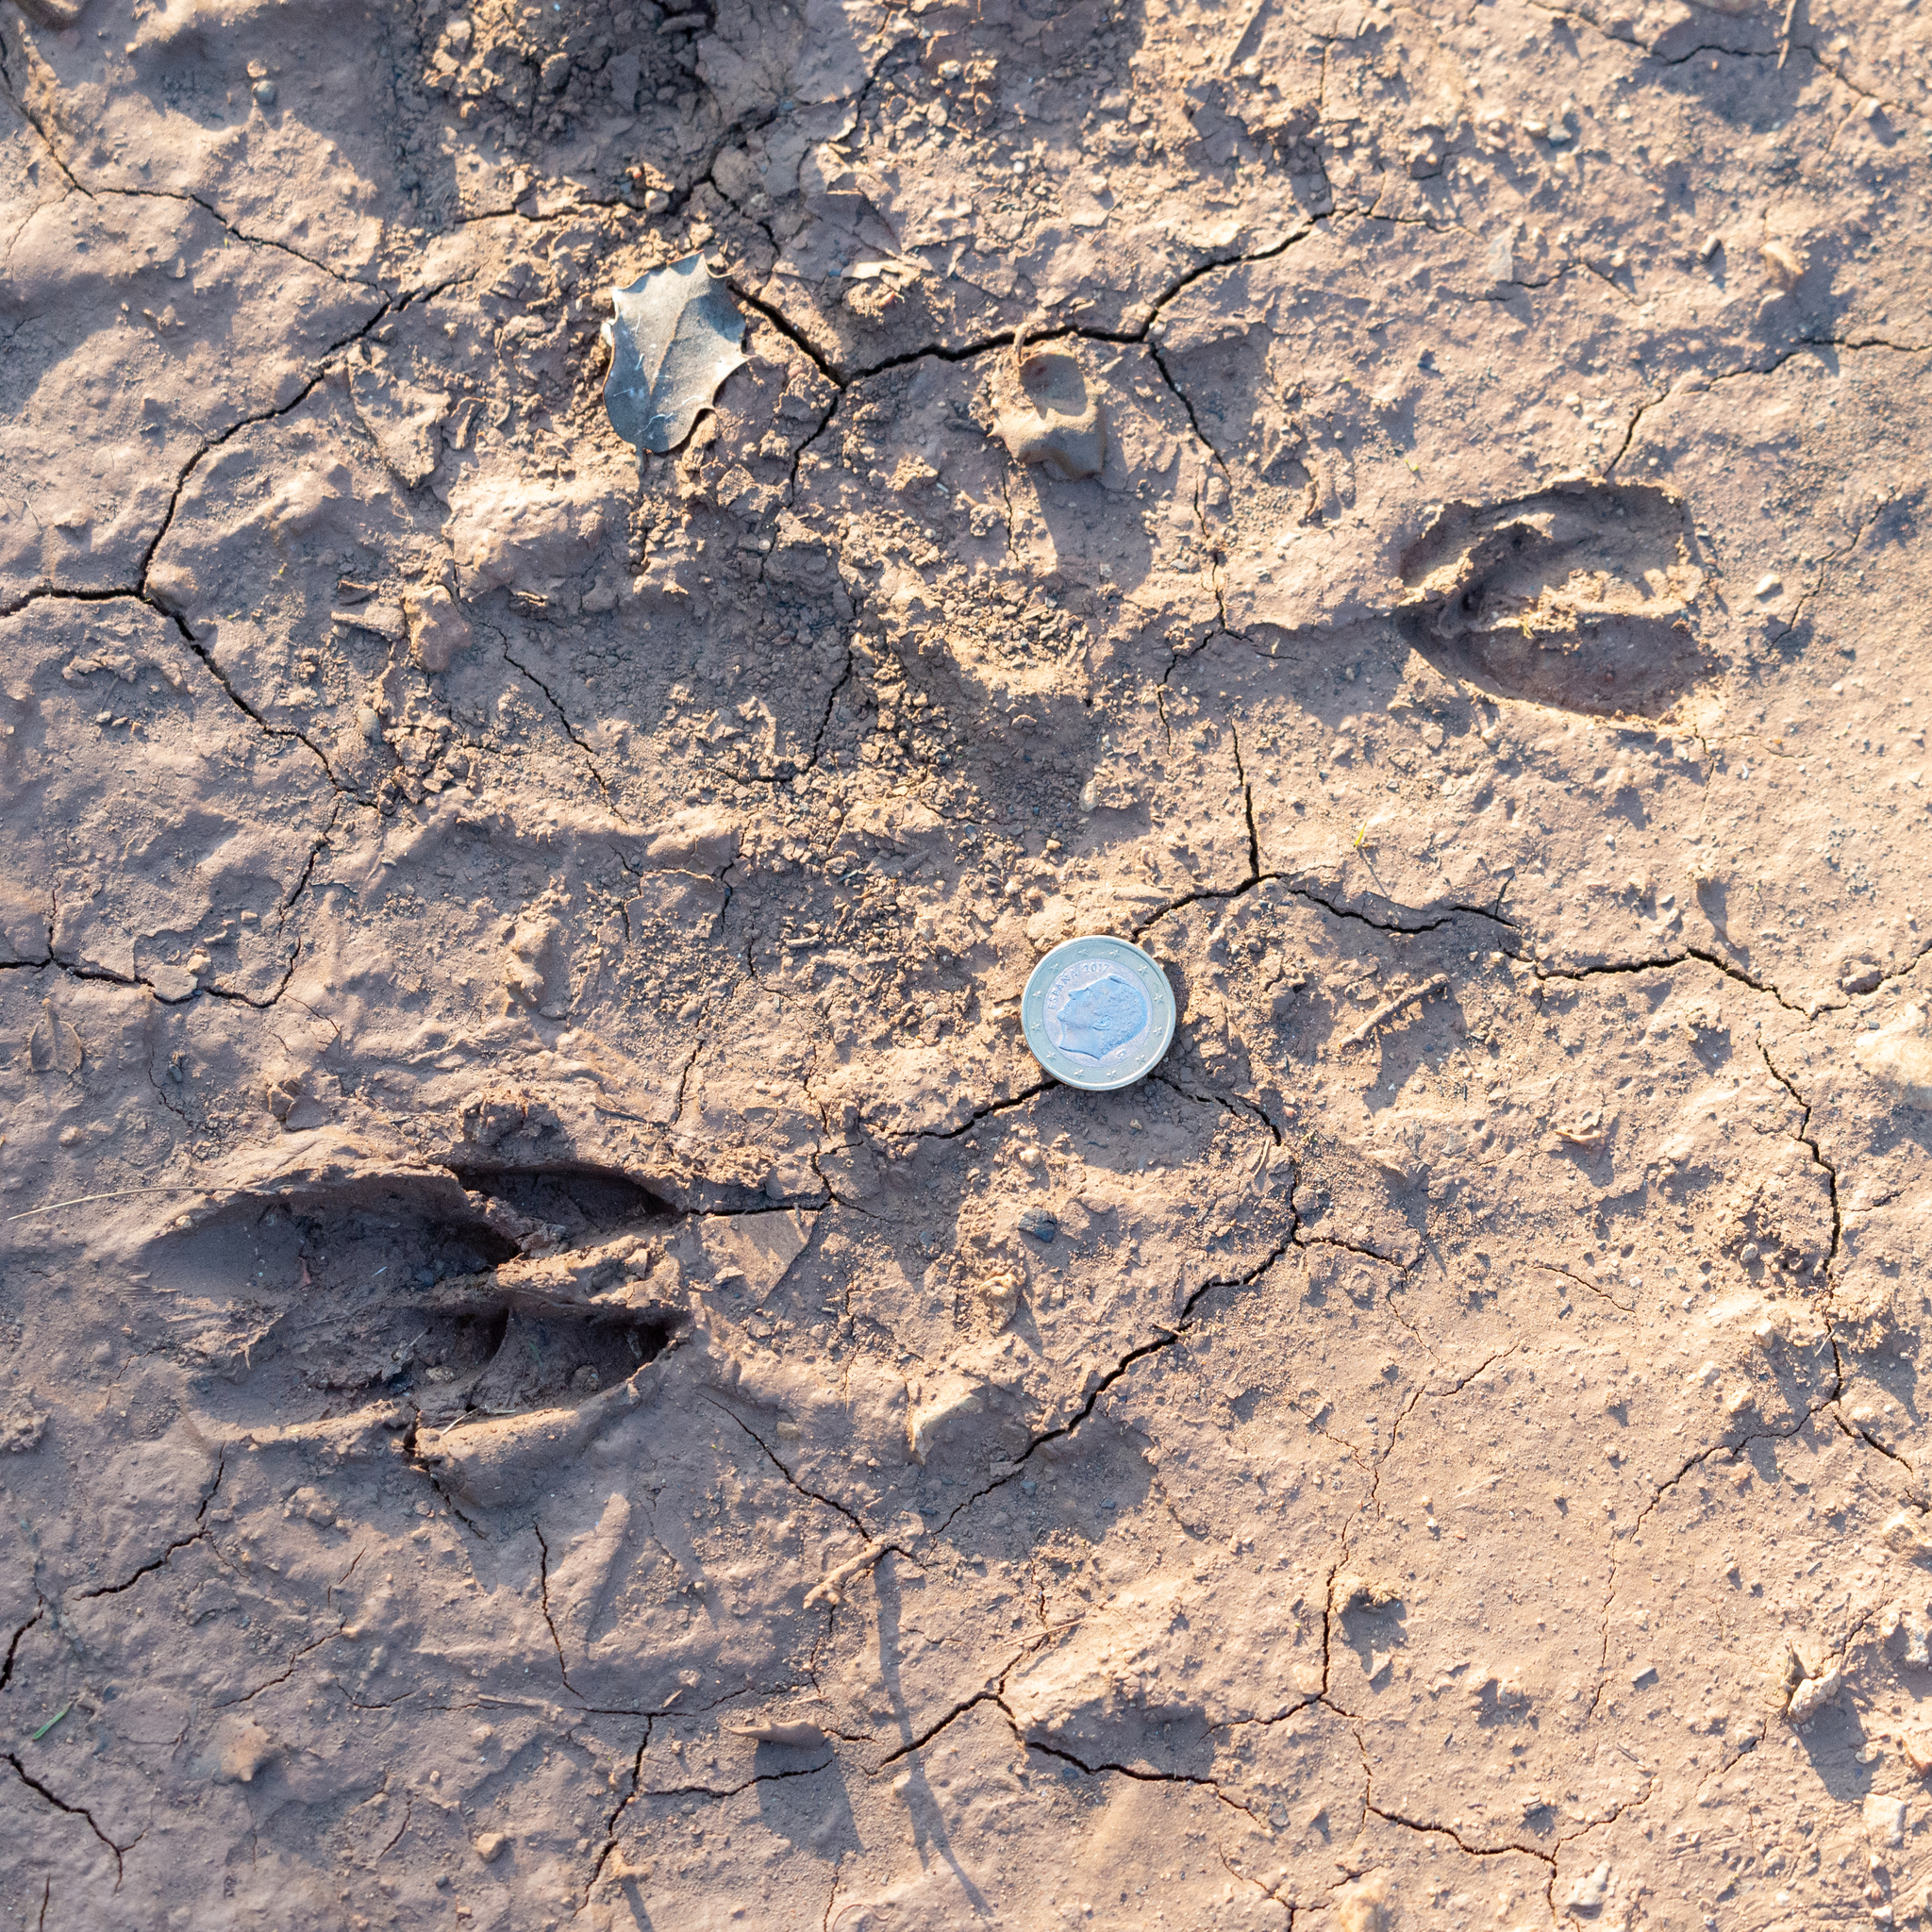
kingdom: Animalia
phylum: Chordata
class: Mammalia
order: Artiodactyla
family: Cervidae
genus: Capreolus
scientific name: Capreolus capreolus
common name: Western roe deer
